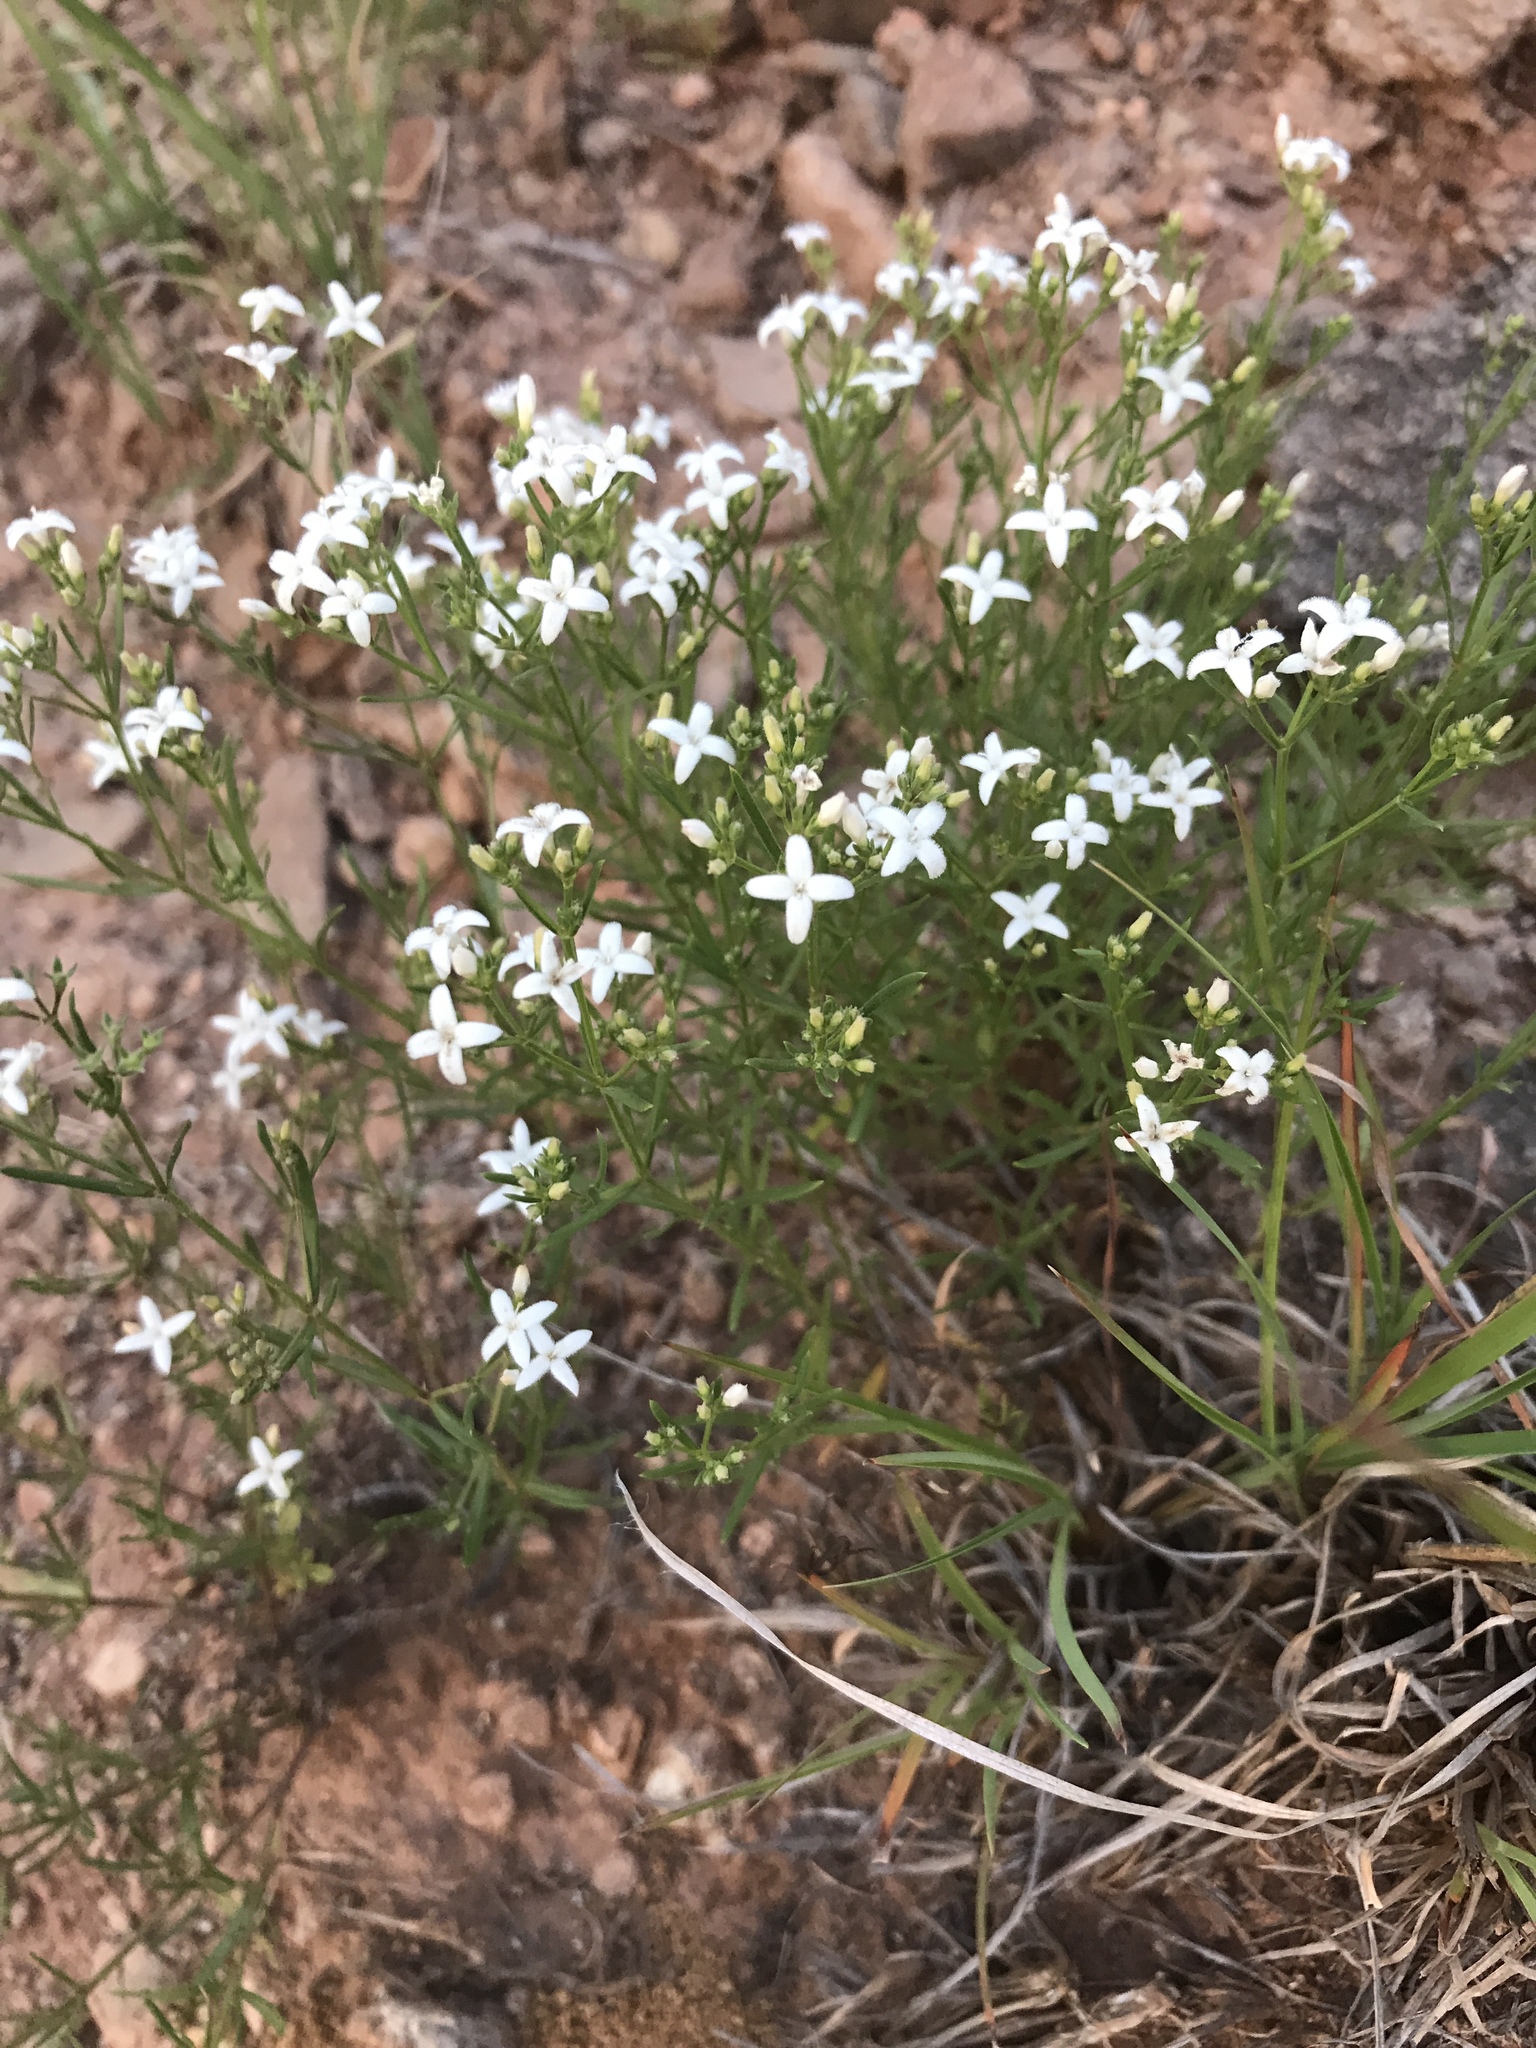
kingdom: Plantae
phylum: Tracheophyta
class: Magnoliopsida
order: Gentianales
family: Rubiaceae
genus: Stenaria
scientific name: Stenaria nigricans
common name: Diamondflowers
